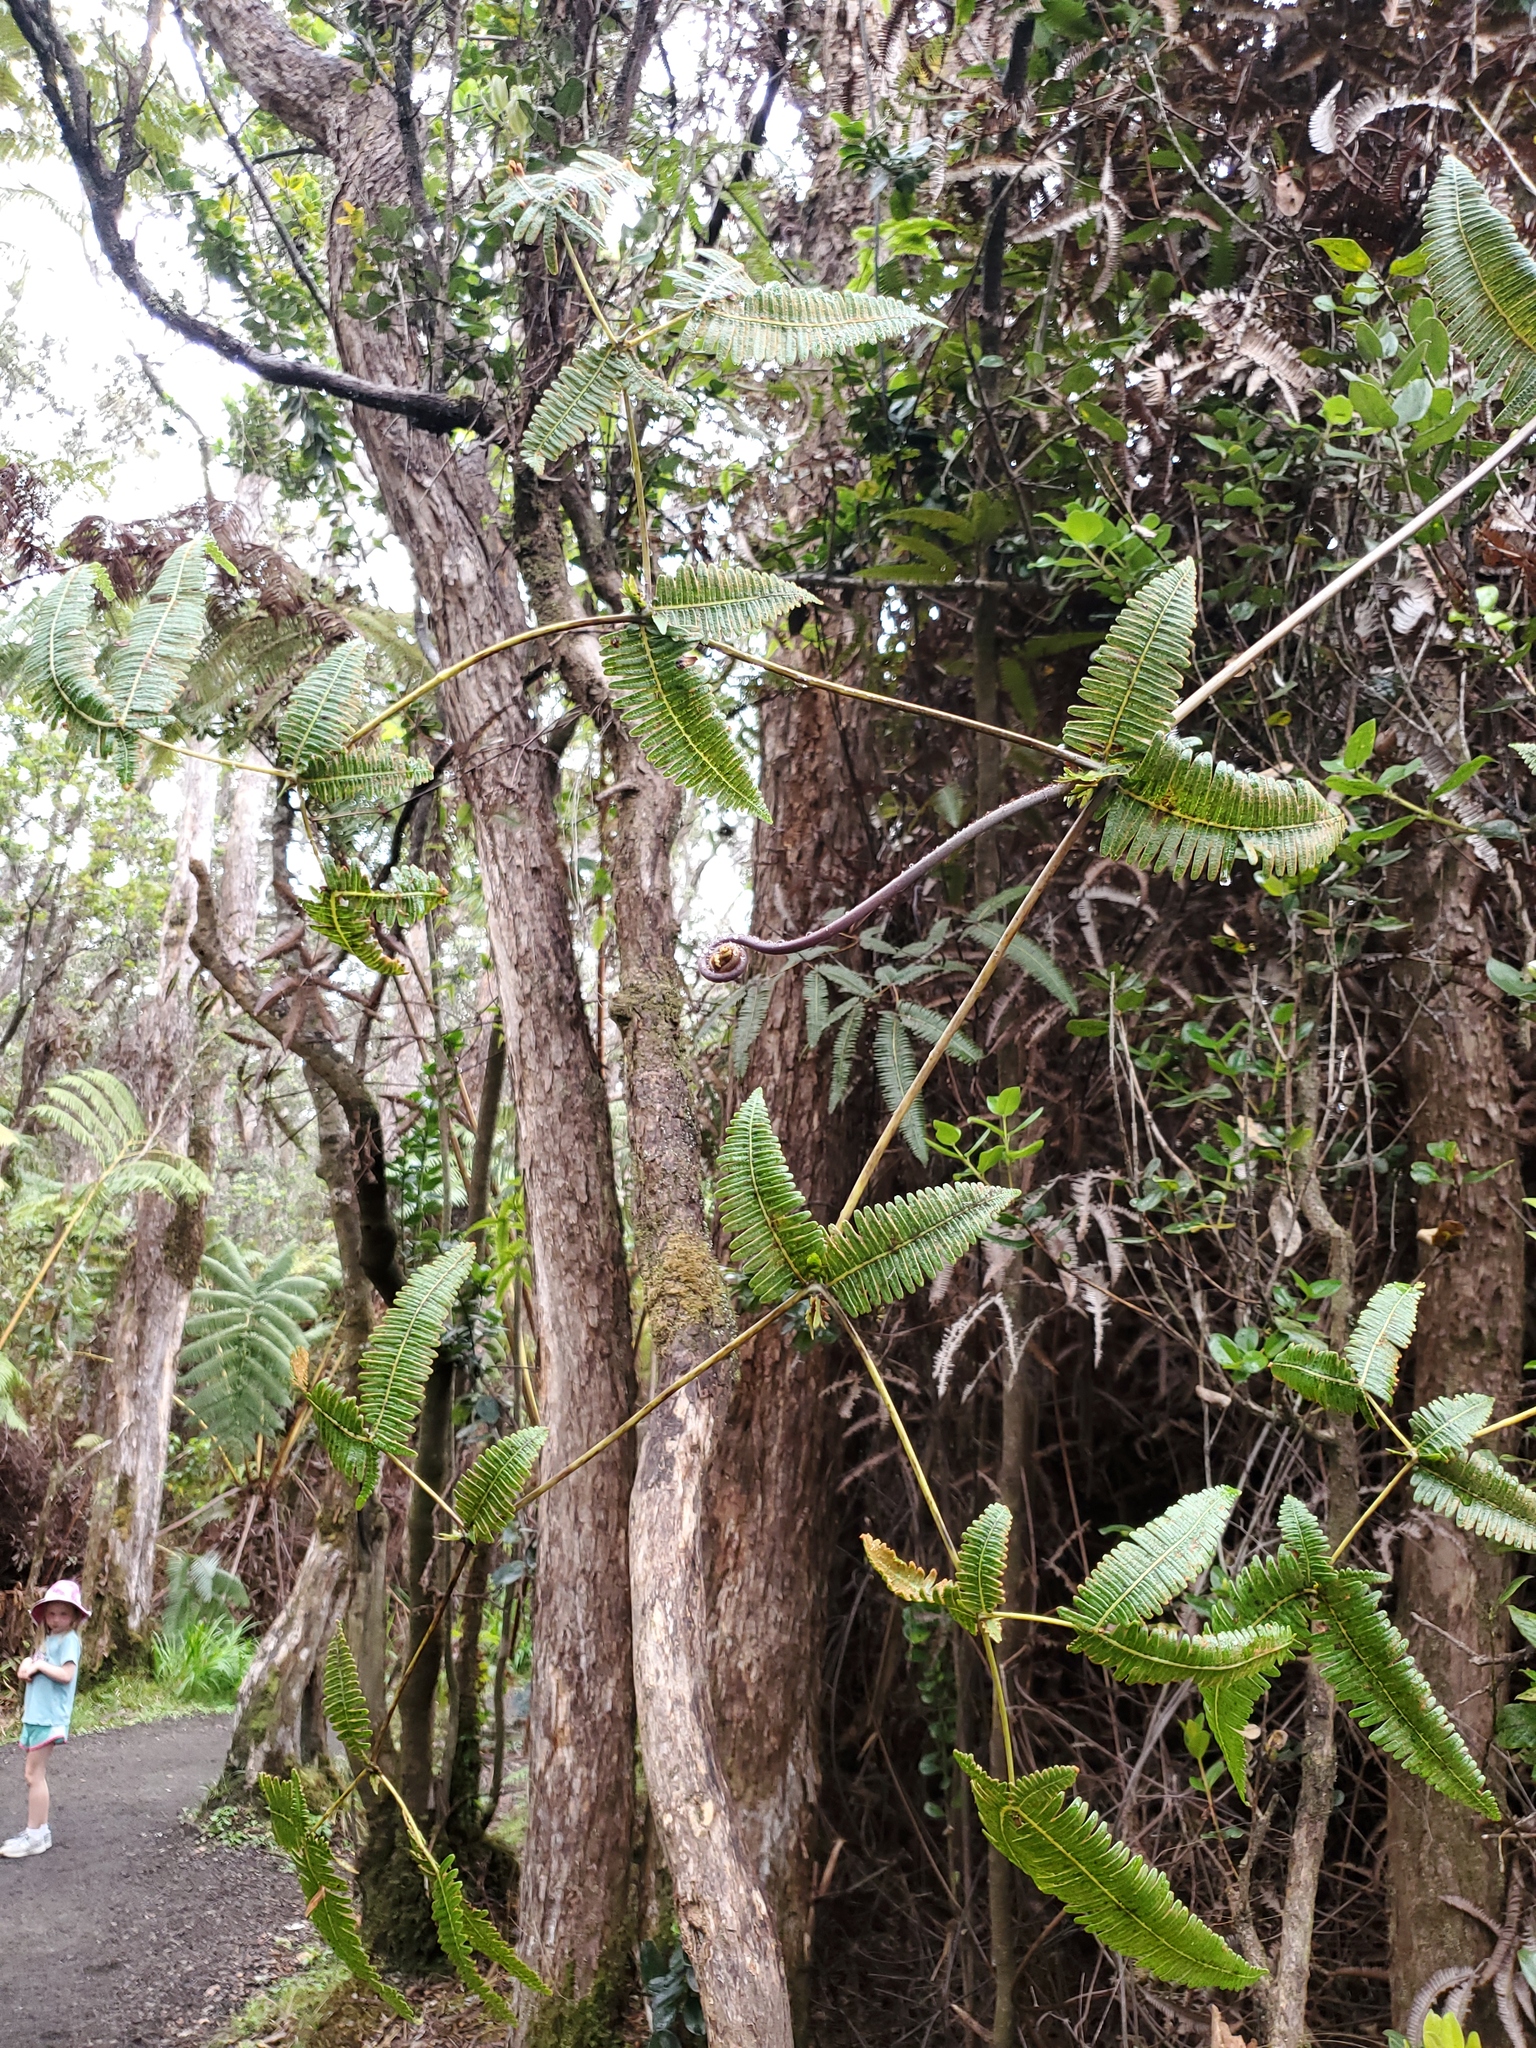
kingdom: Plantae
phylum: Tracheophyta
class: Polypodiopsida
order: Gleicheniales
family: Gleicheniaceae
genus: Dicranopteris
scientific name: Dicranopteris linearis
